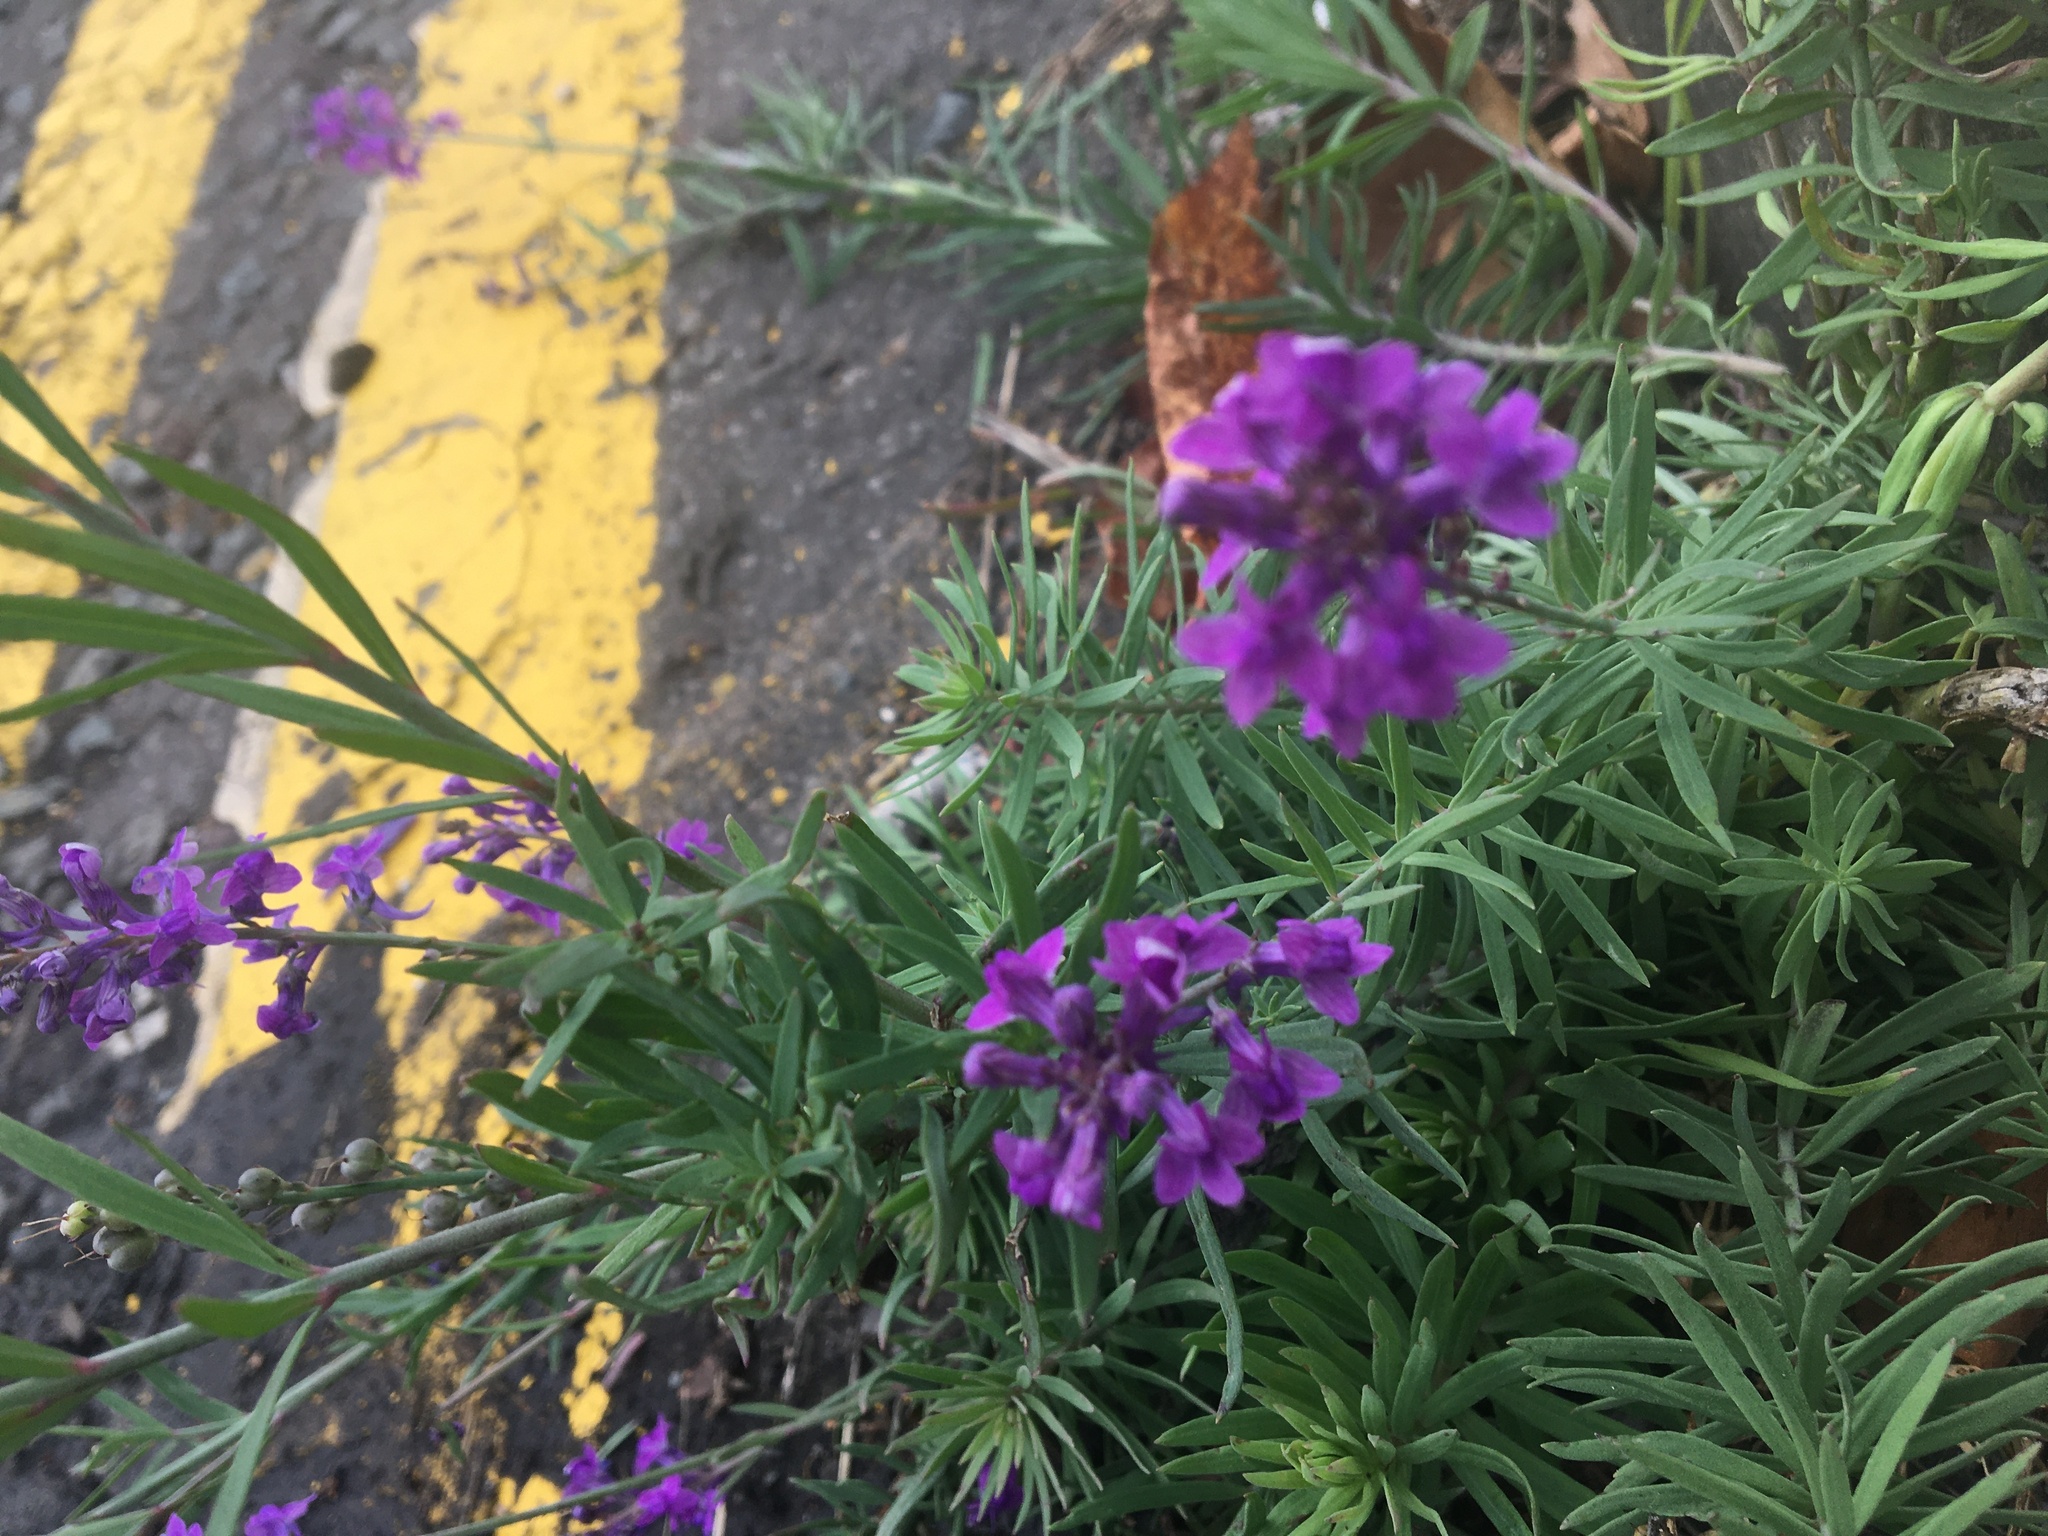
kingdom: Plantae
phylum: Tracheophyta
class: Magnoliopsida
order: Lamiales
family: Plantaginaceae
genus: Linaria
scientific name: Linaria purpurea
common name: Purple toadflax
